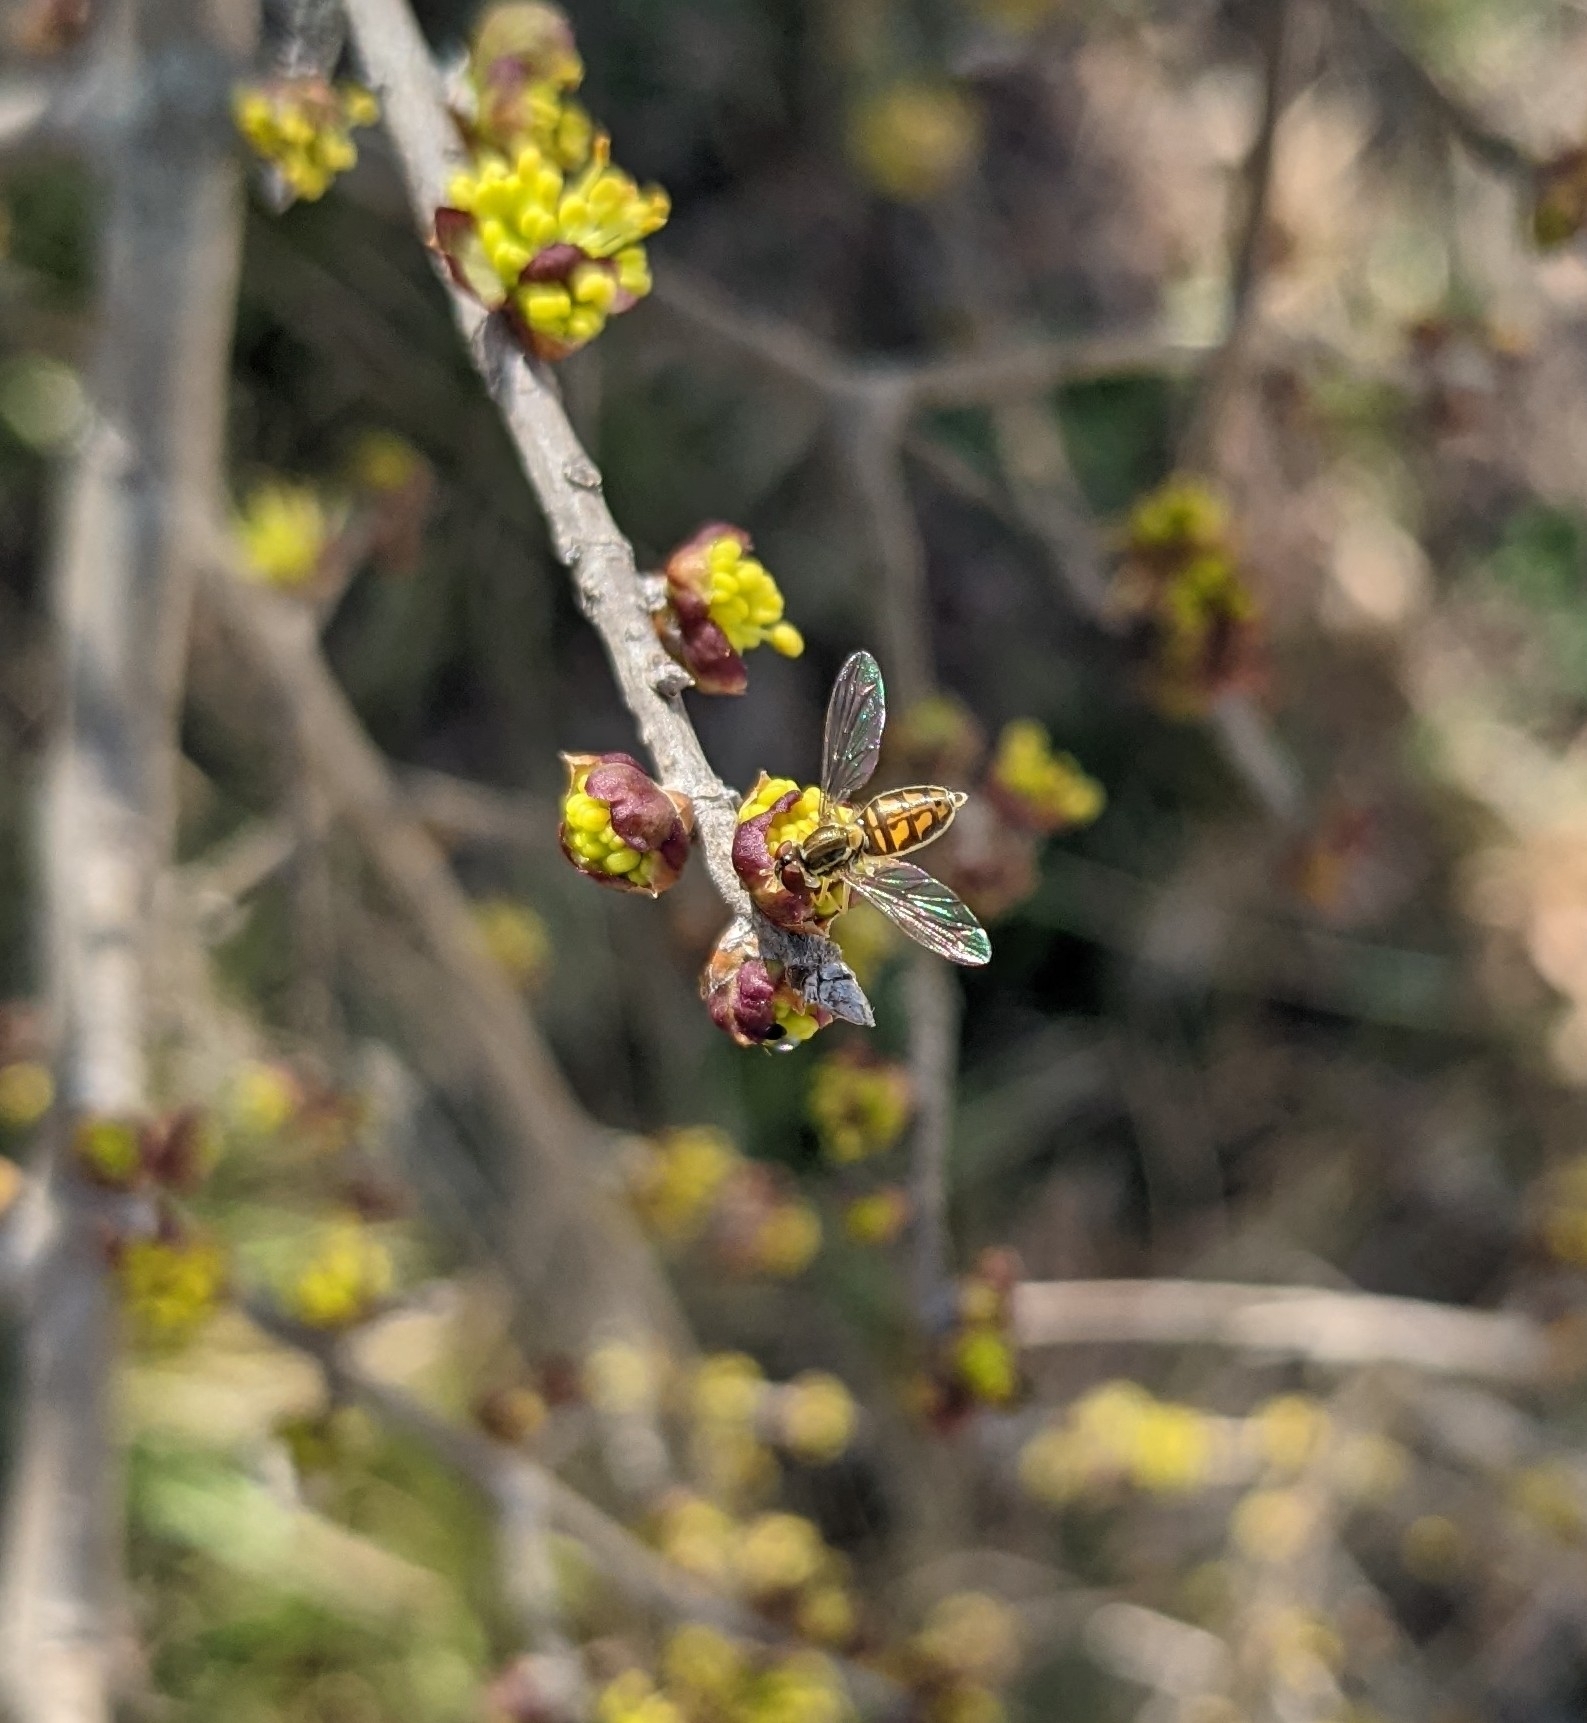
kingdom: Animalia
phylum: Arthropoda
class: Insecta
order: Diptera
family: Syrphidae
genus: Toxomerus
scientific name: Toxomerus marginatus
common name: Syrphid fly
